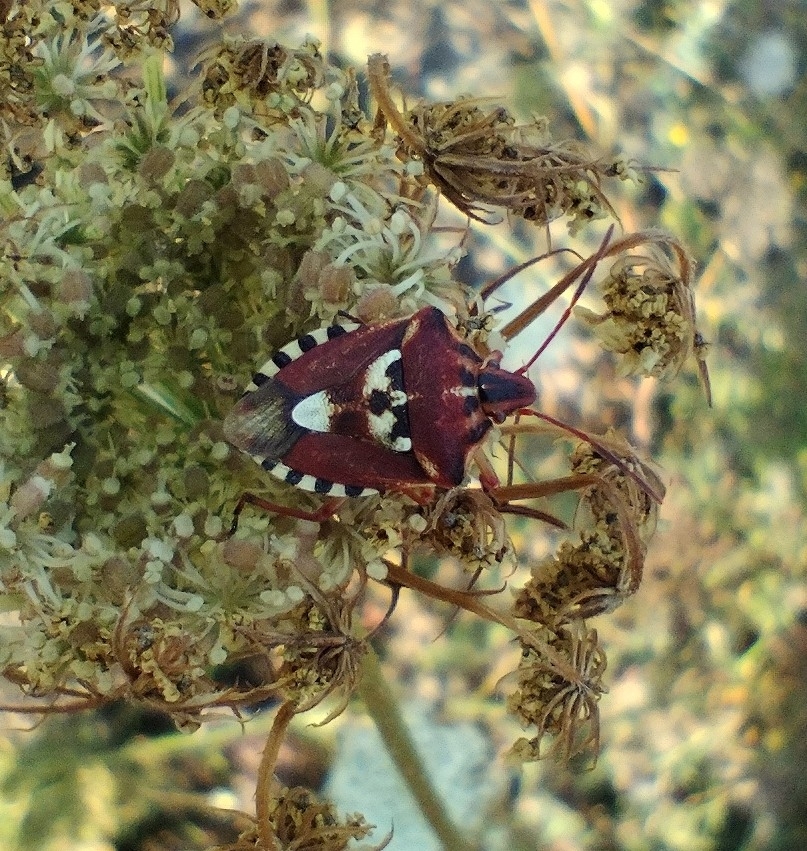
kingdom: Animalia
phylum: Arthropoda
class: Insecta
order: Hemiptera
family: Miridae
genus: Orthops
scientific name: Orthops kalmii
